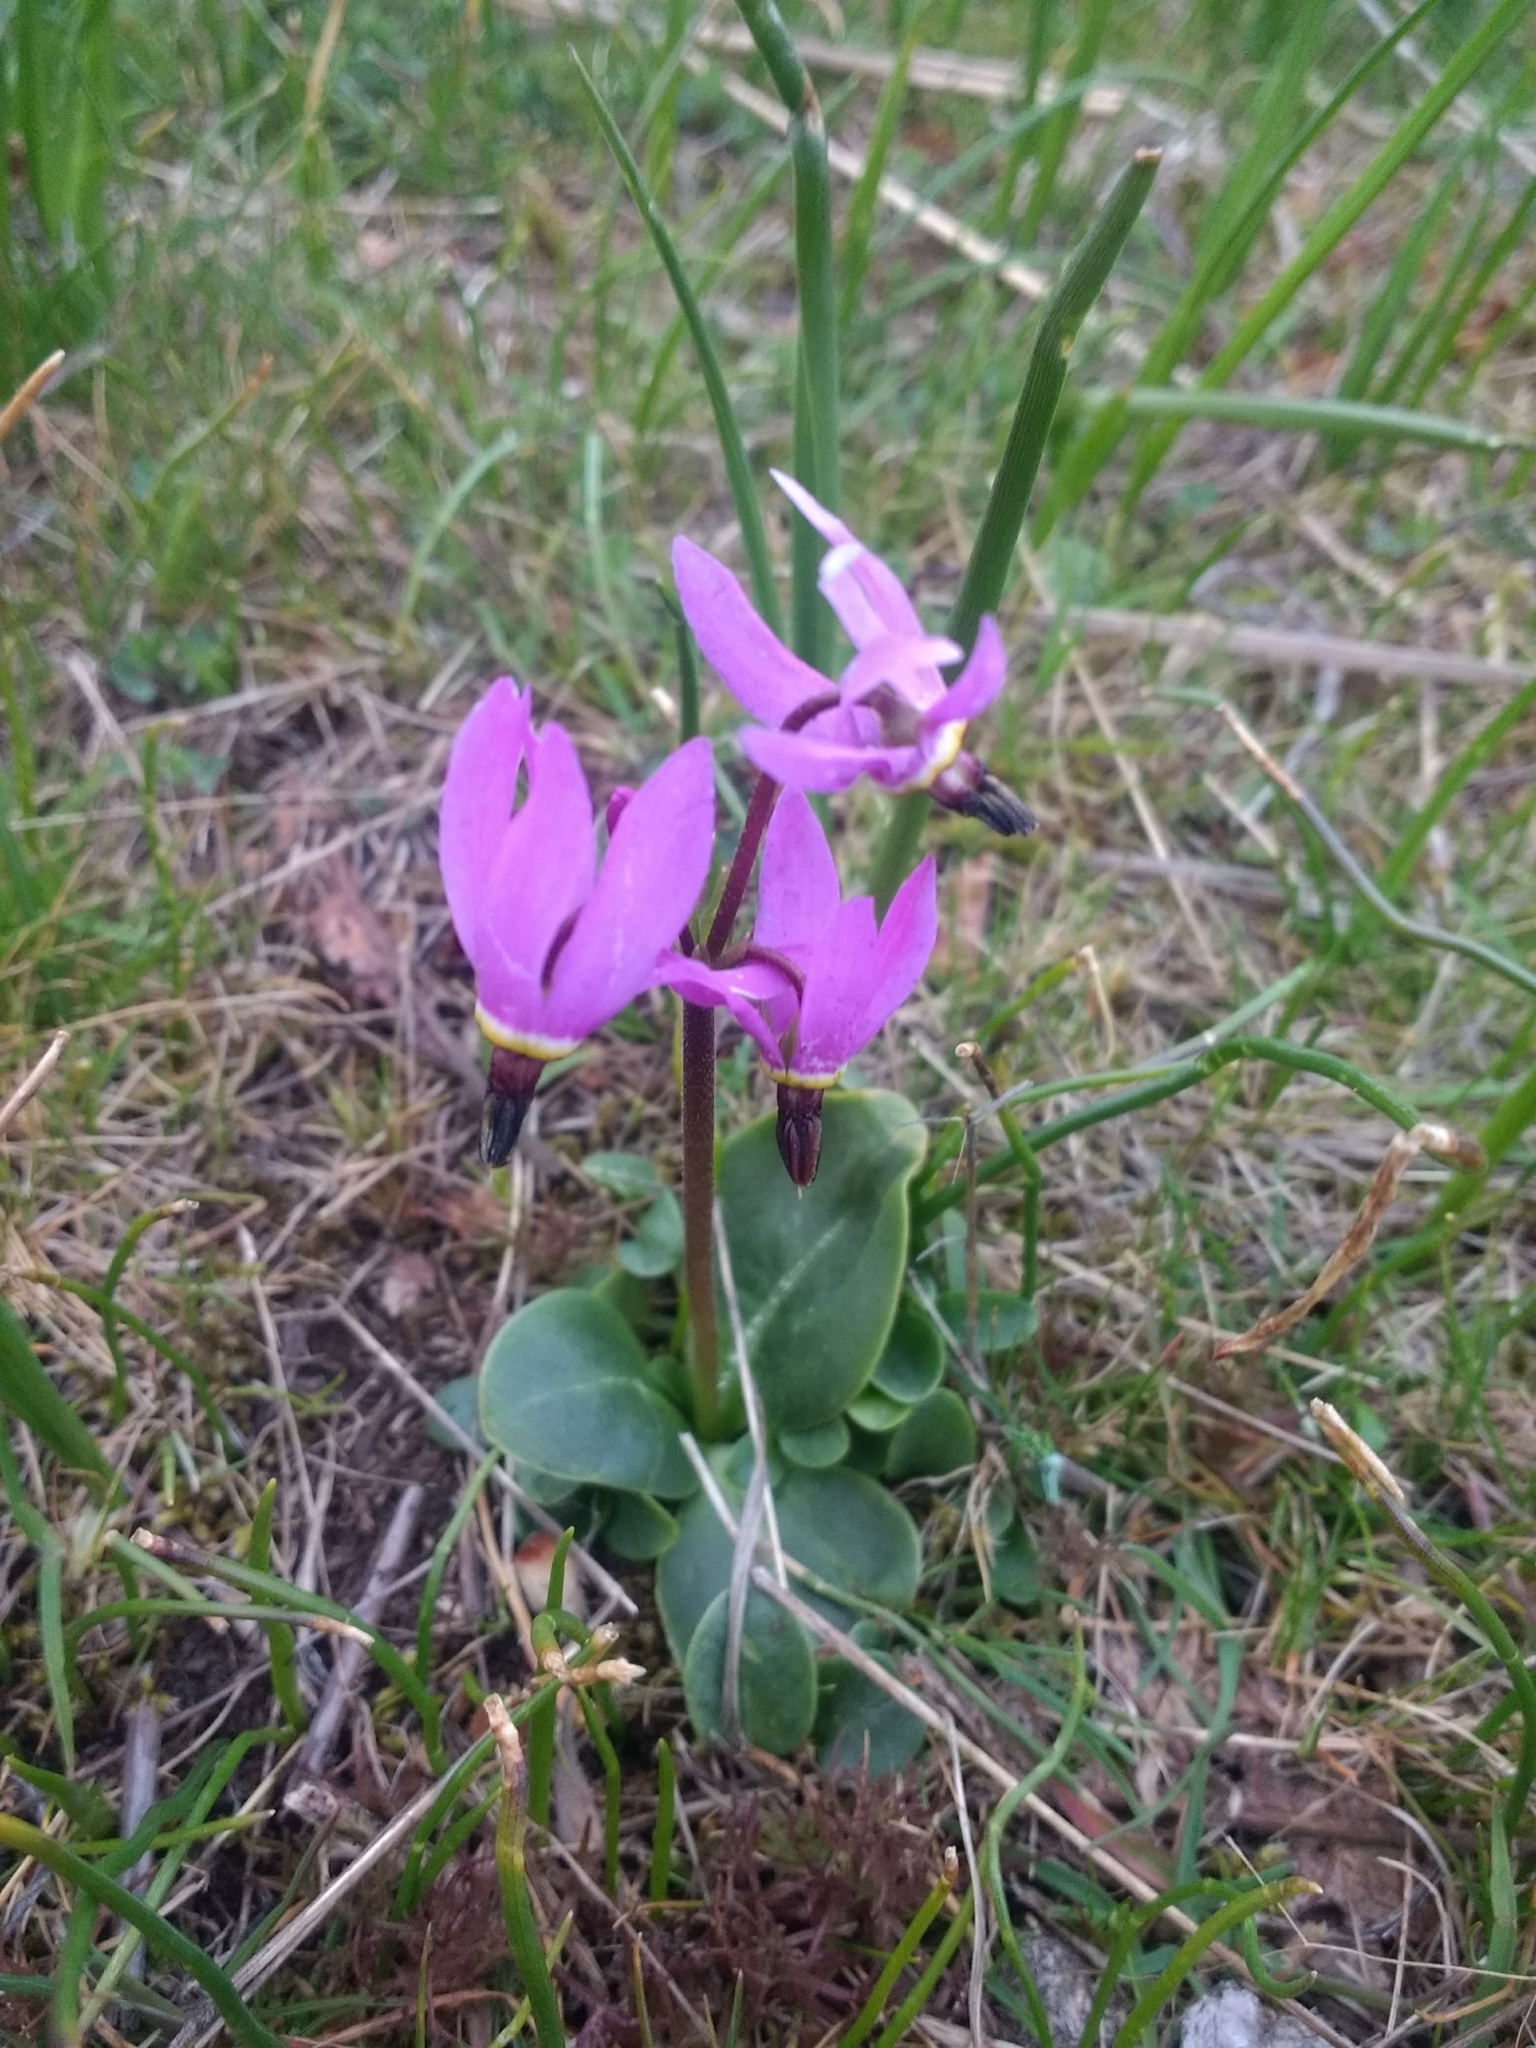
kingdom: Plantae
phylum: Tracheophyta
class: Magnoliopsida
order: Ericales
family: Primulaceae
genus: Dodecatheon
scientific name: Dodecatheon hendersonii
